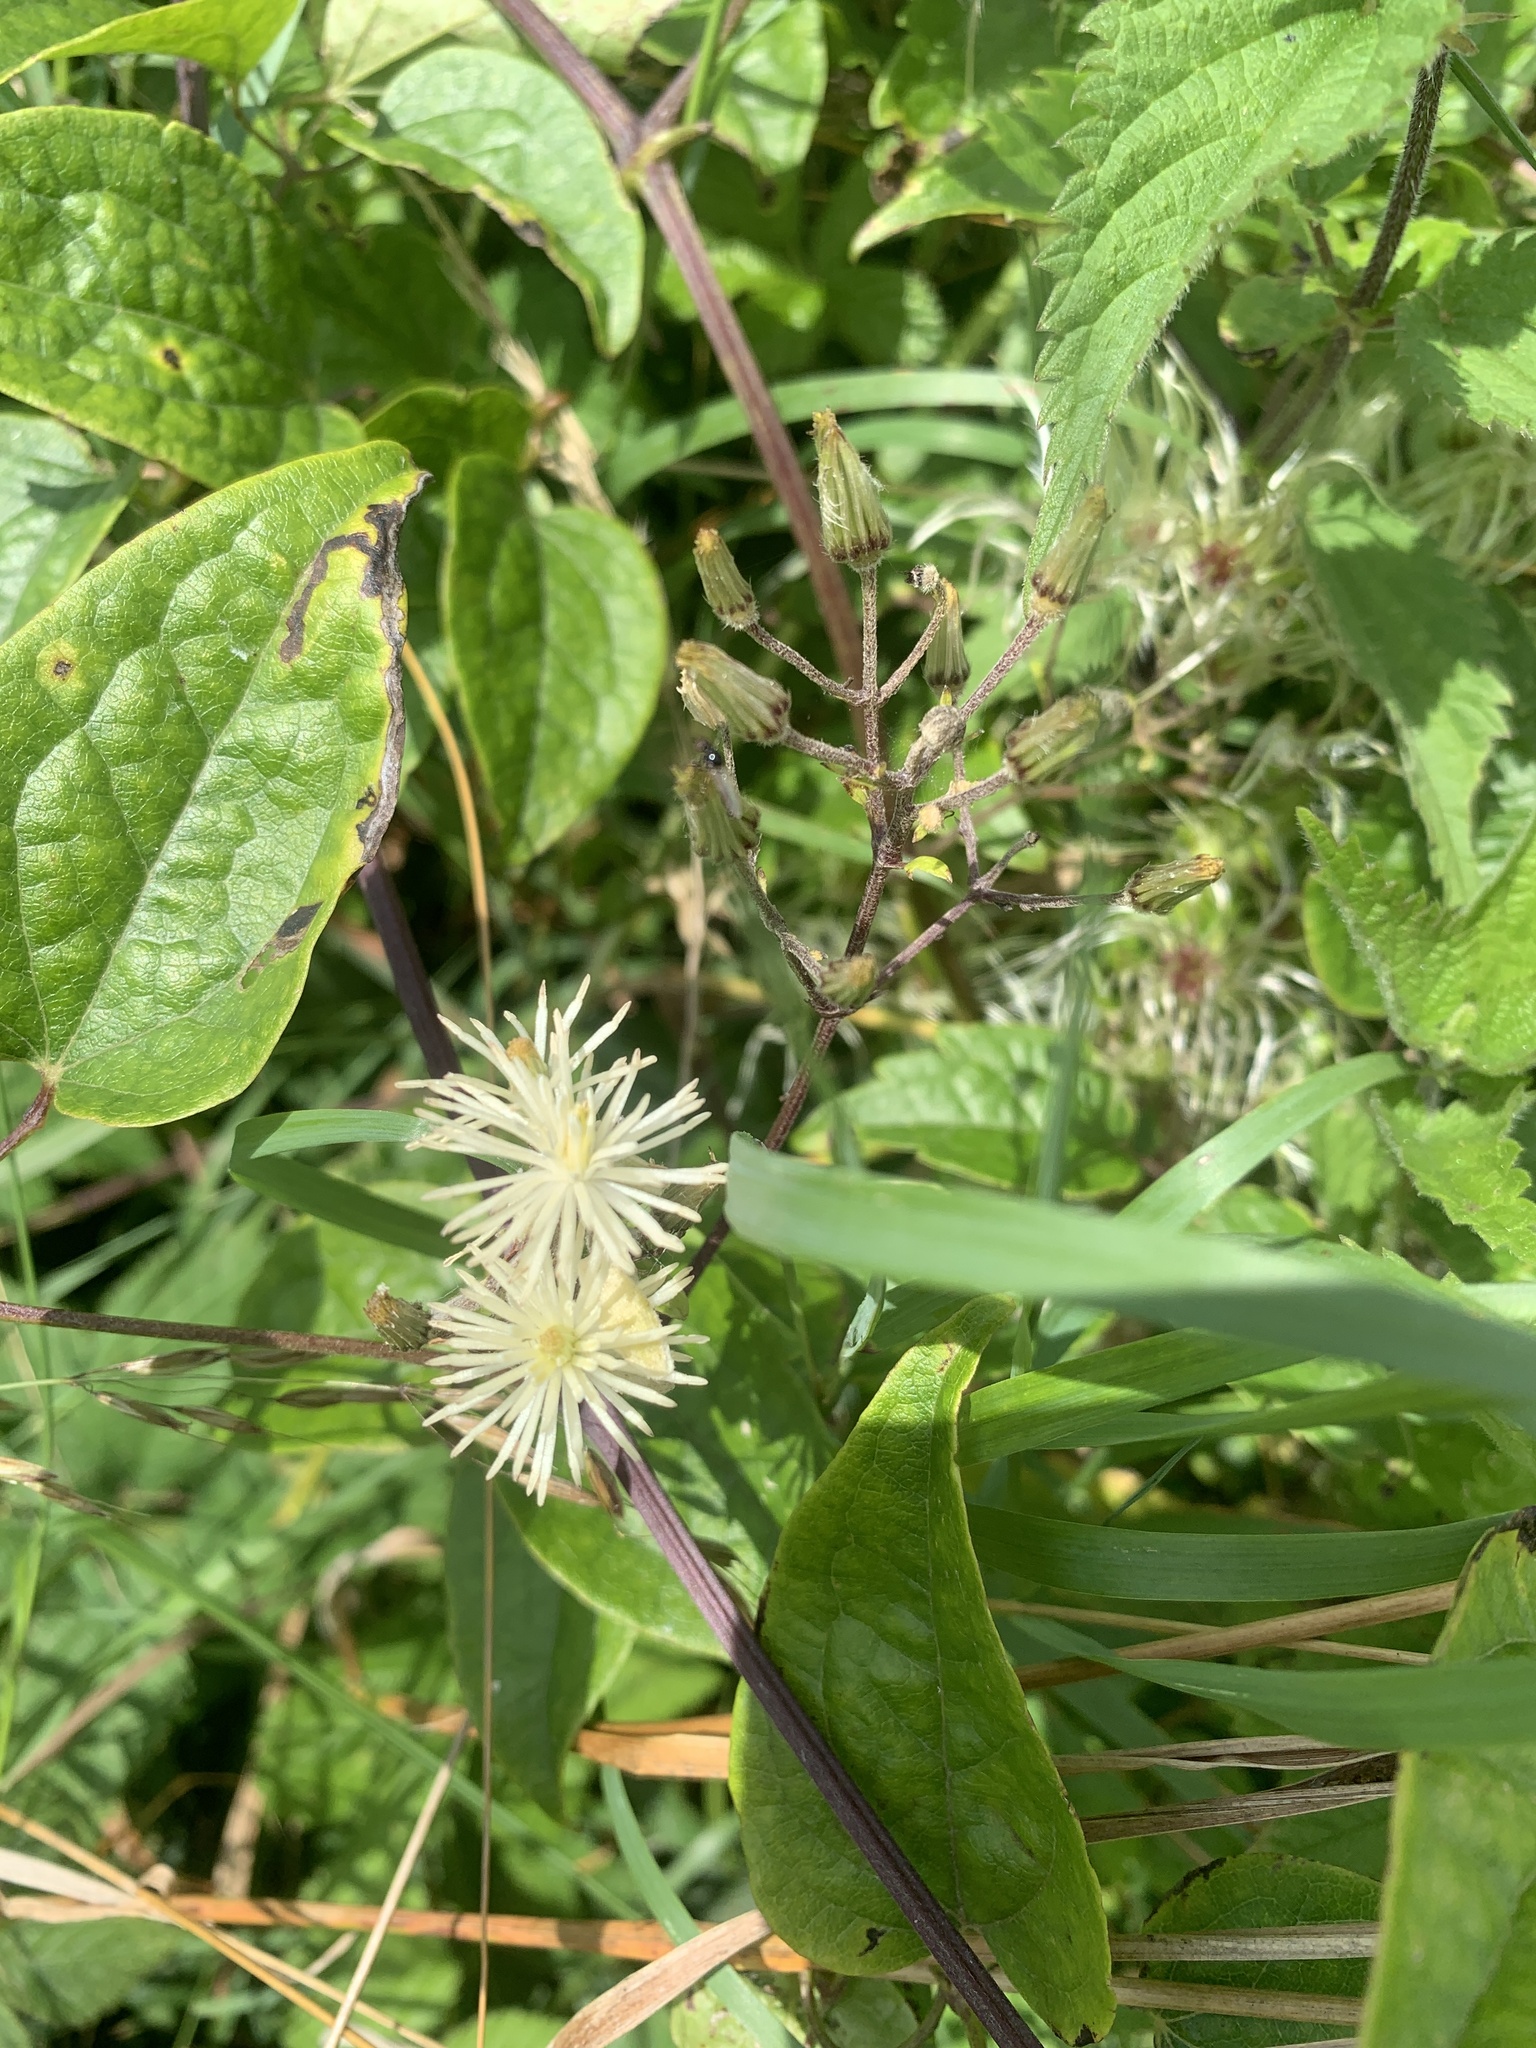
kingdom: Plantae
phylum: Tracheophyta
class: Magnoliopsida
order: Ranunculales
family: Ranunculaceae
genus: Clematis
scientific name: Clematis vitalba
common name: Evergreen clematis
